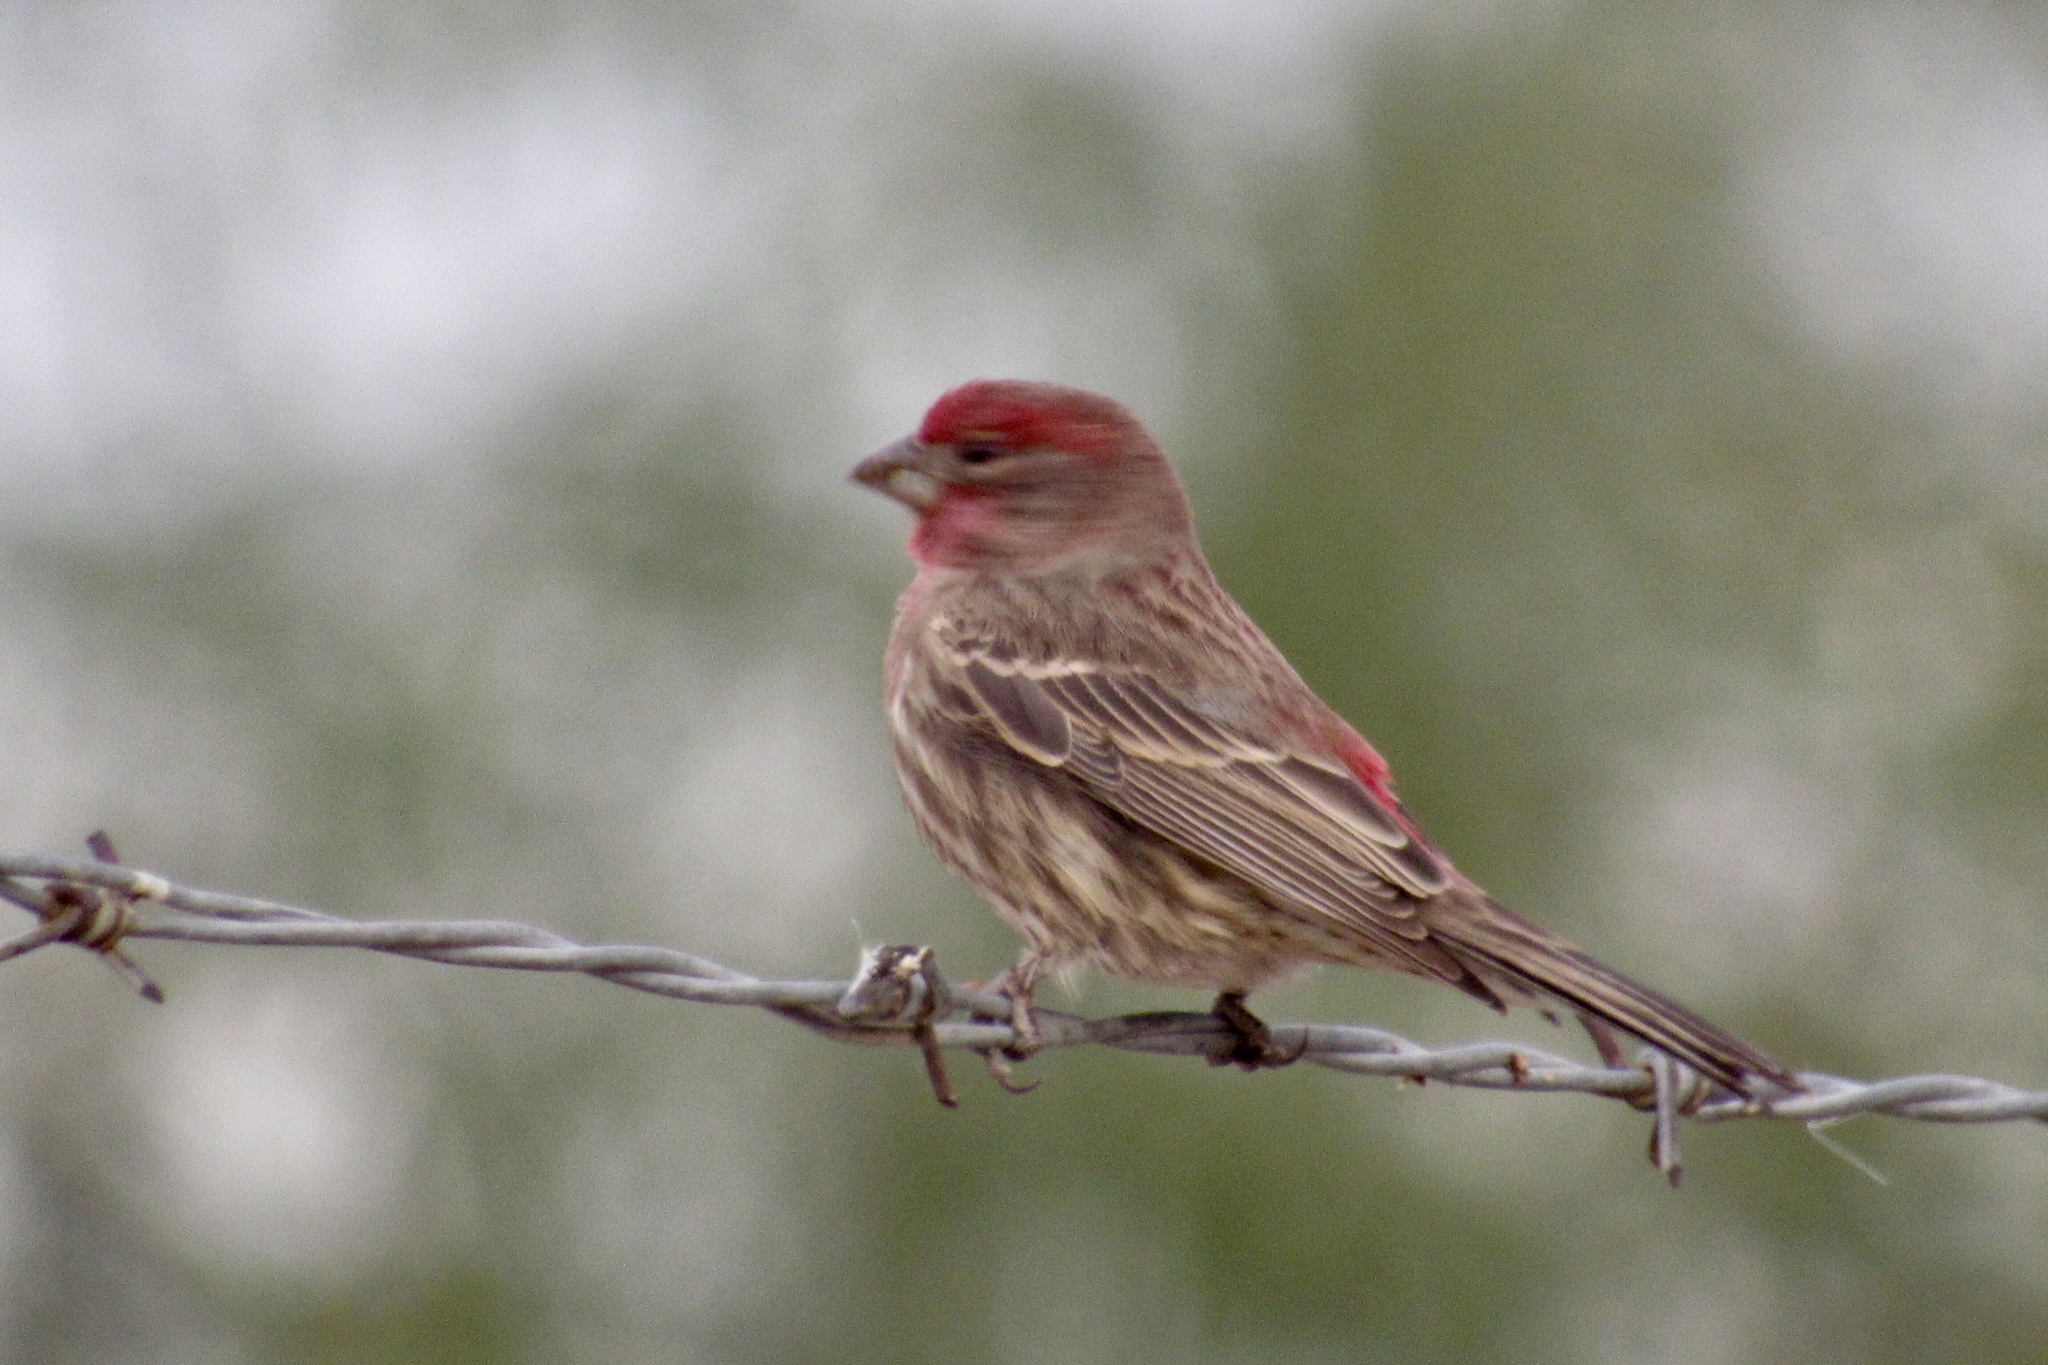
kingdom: Animalia
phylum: Chordata
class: Aves
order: Passeriformes
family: Fringillidae
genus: Haemorhous
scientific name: Haemorhous mexicanus
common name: House finch
